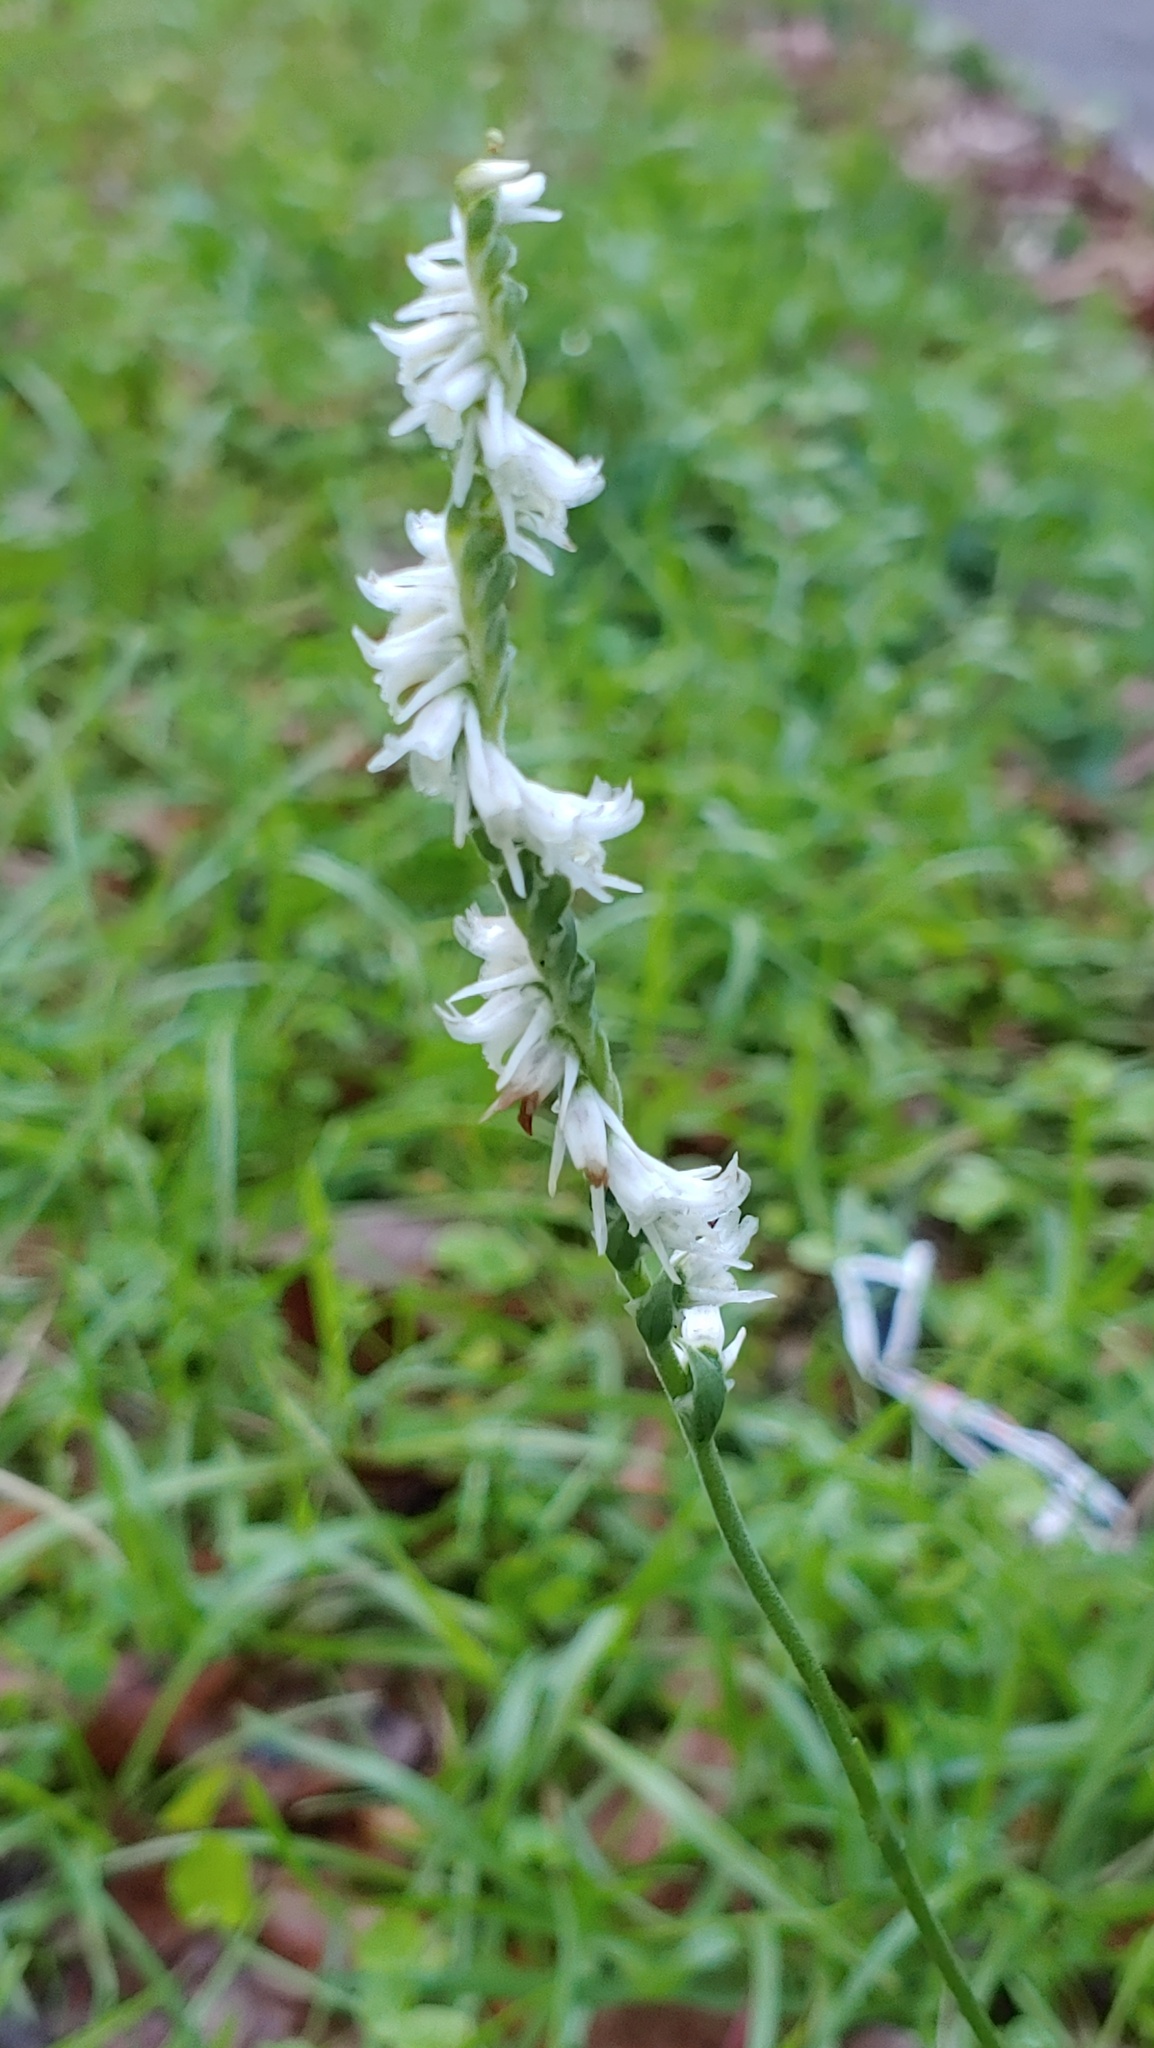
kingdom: Plantae
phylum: Tracheophyta
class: Liliopsida
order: Asparagales
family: Orchidaceae
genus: Spiranthes
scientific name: Spiranthes vernalis
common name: Spring ladies'-tresses
